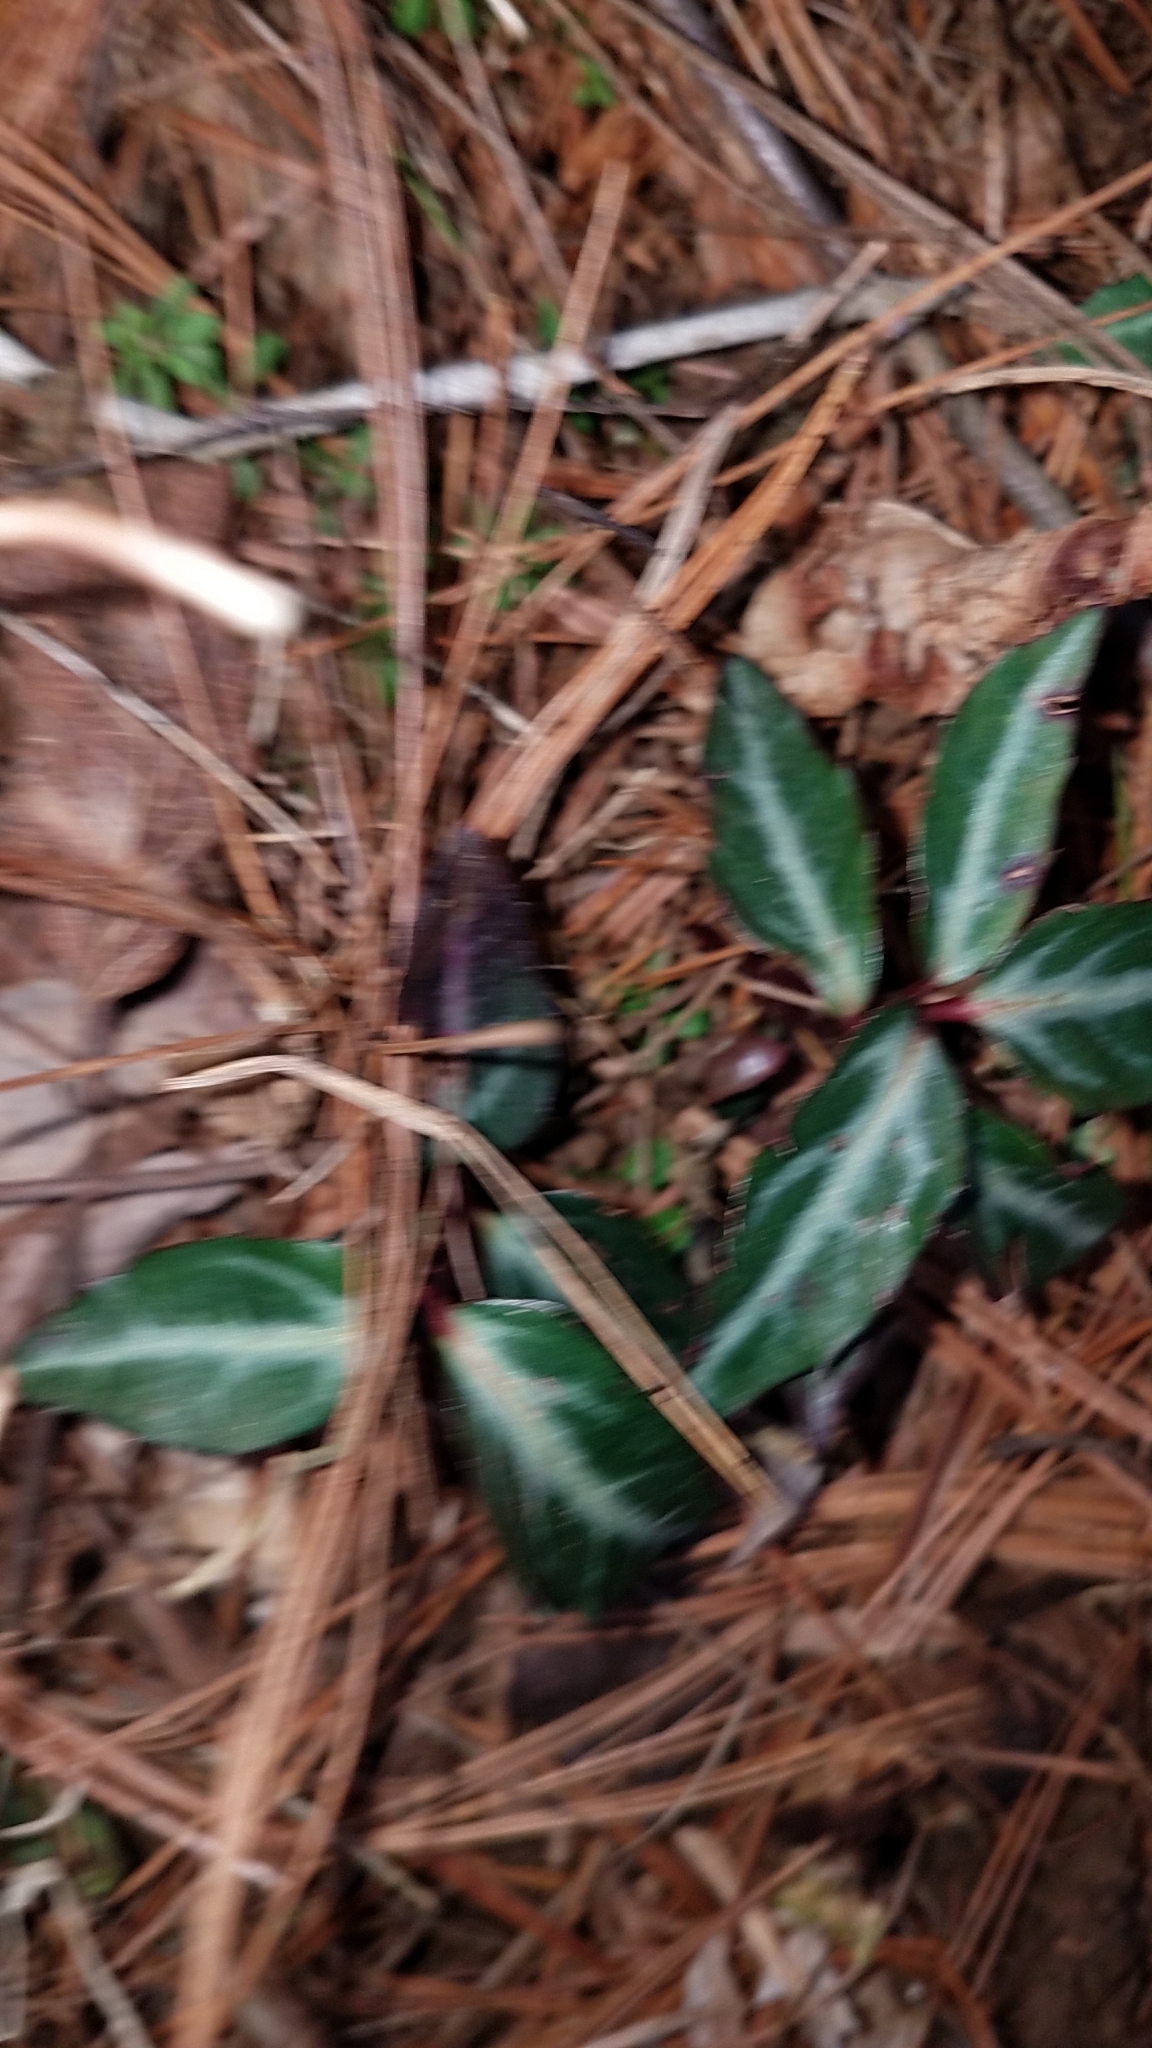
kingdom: Plantae
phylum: Tracheophyta
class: Magnoliopsida
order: Ericales
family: Ericaceae
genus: Chimaphila
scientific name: Chimaphila maculata
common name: Spotted pipsissewa
